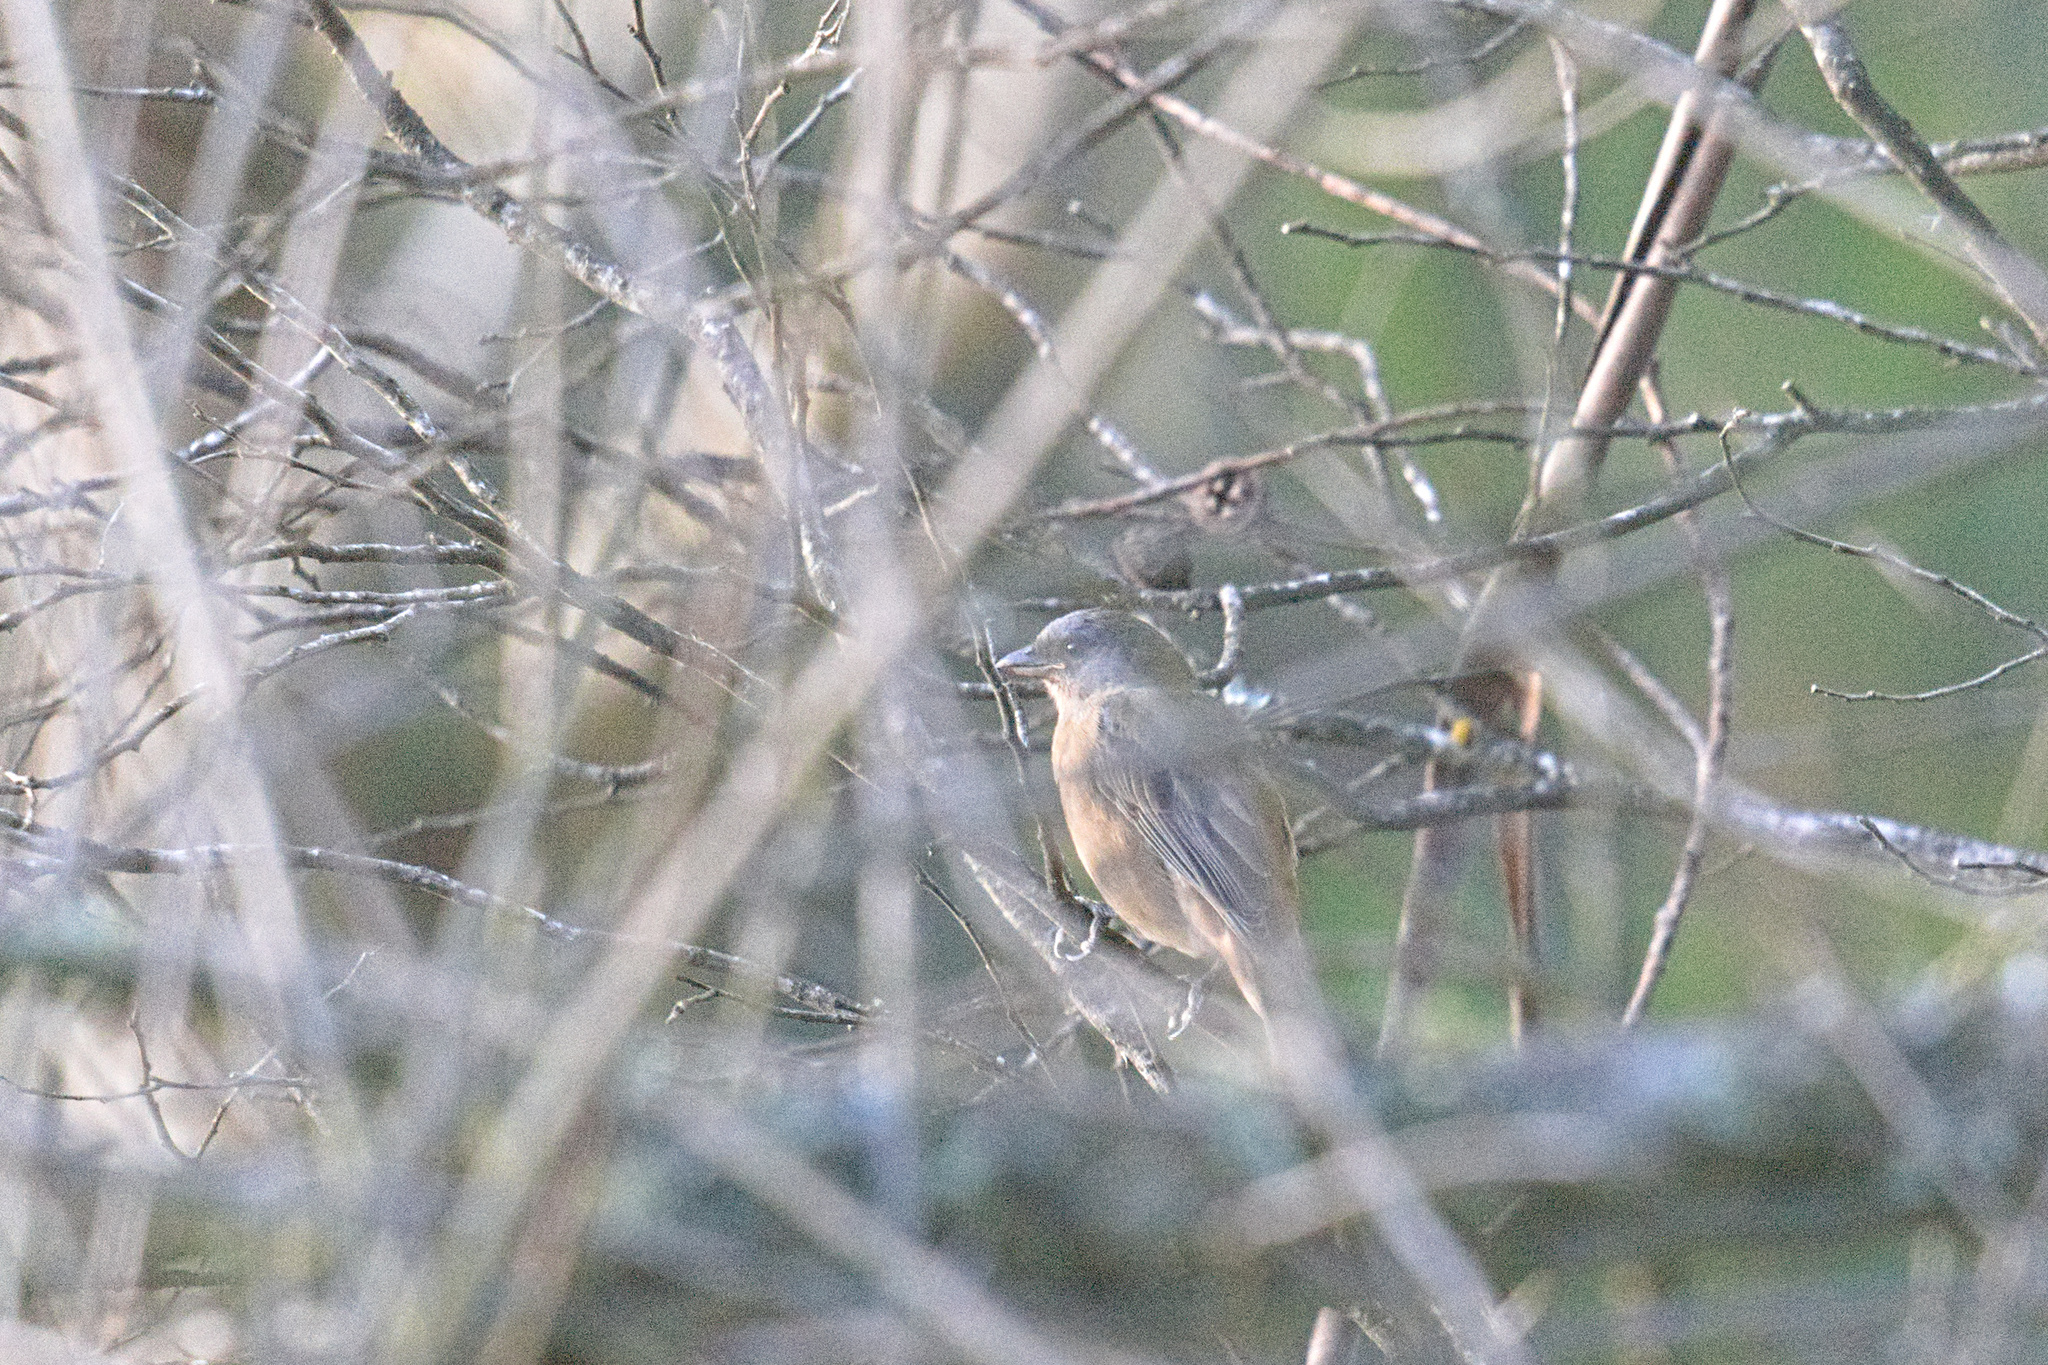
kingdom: Animalia
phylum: Chordata
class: Aves
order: Passeriformes
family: Thraupidae
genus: Rauenia
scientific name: Rauenia bonariensis
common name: Blue-and-yellow tanager
